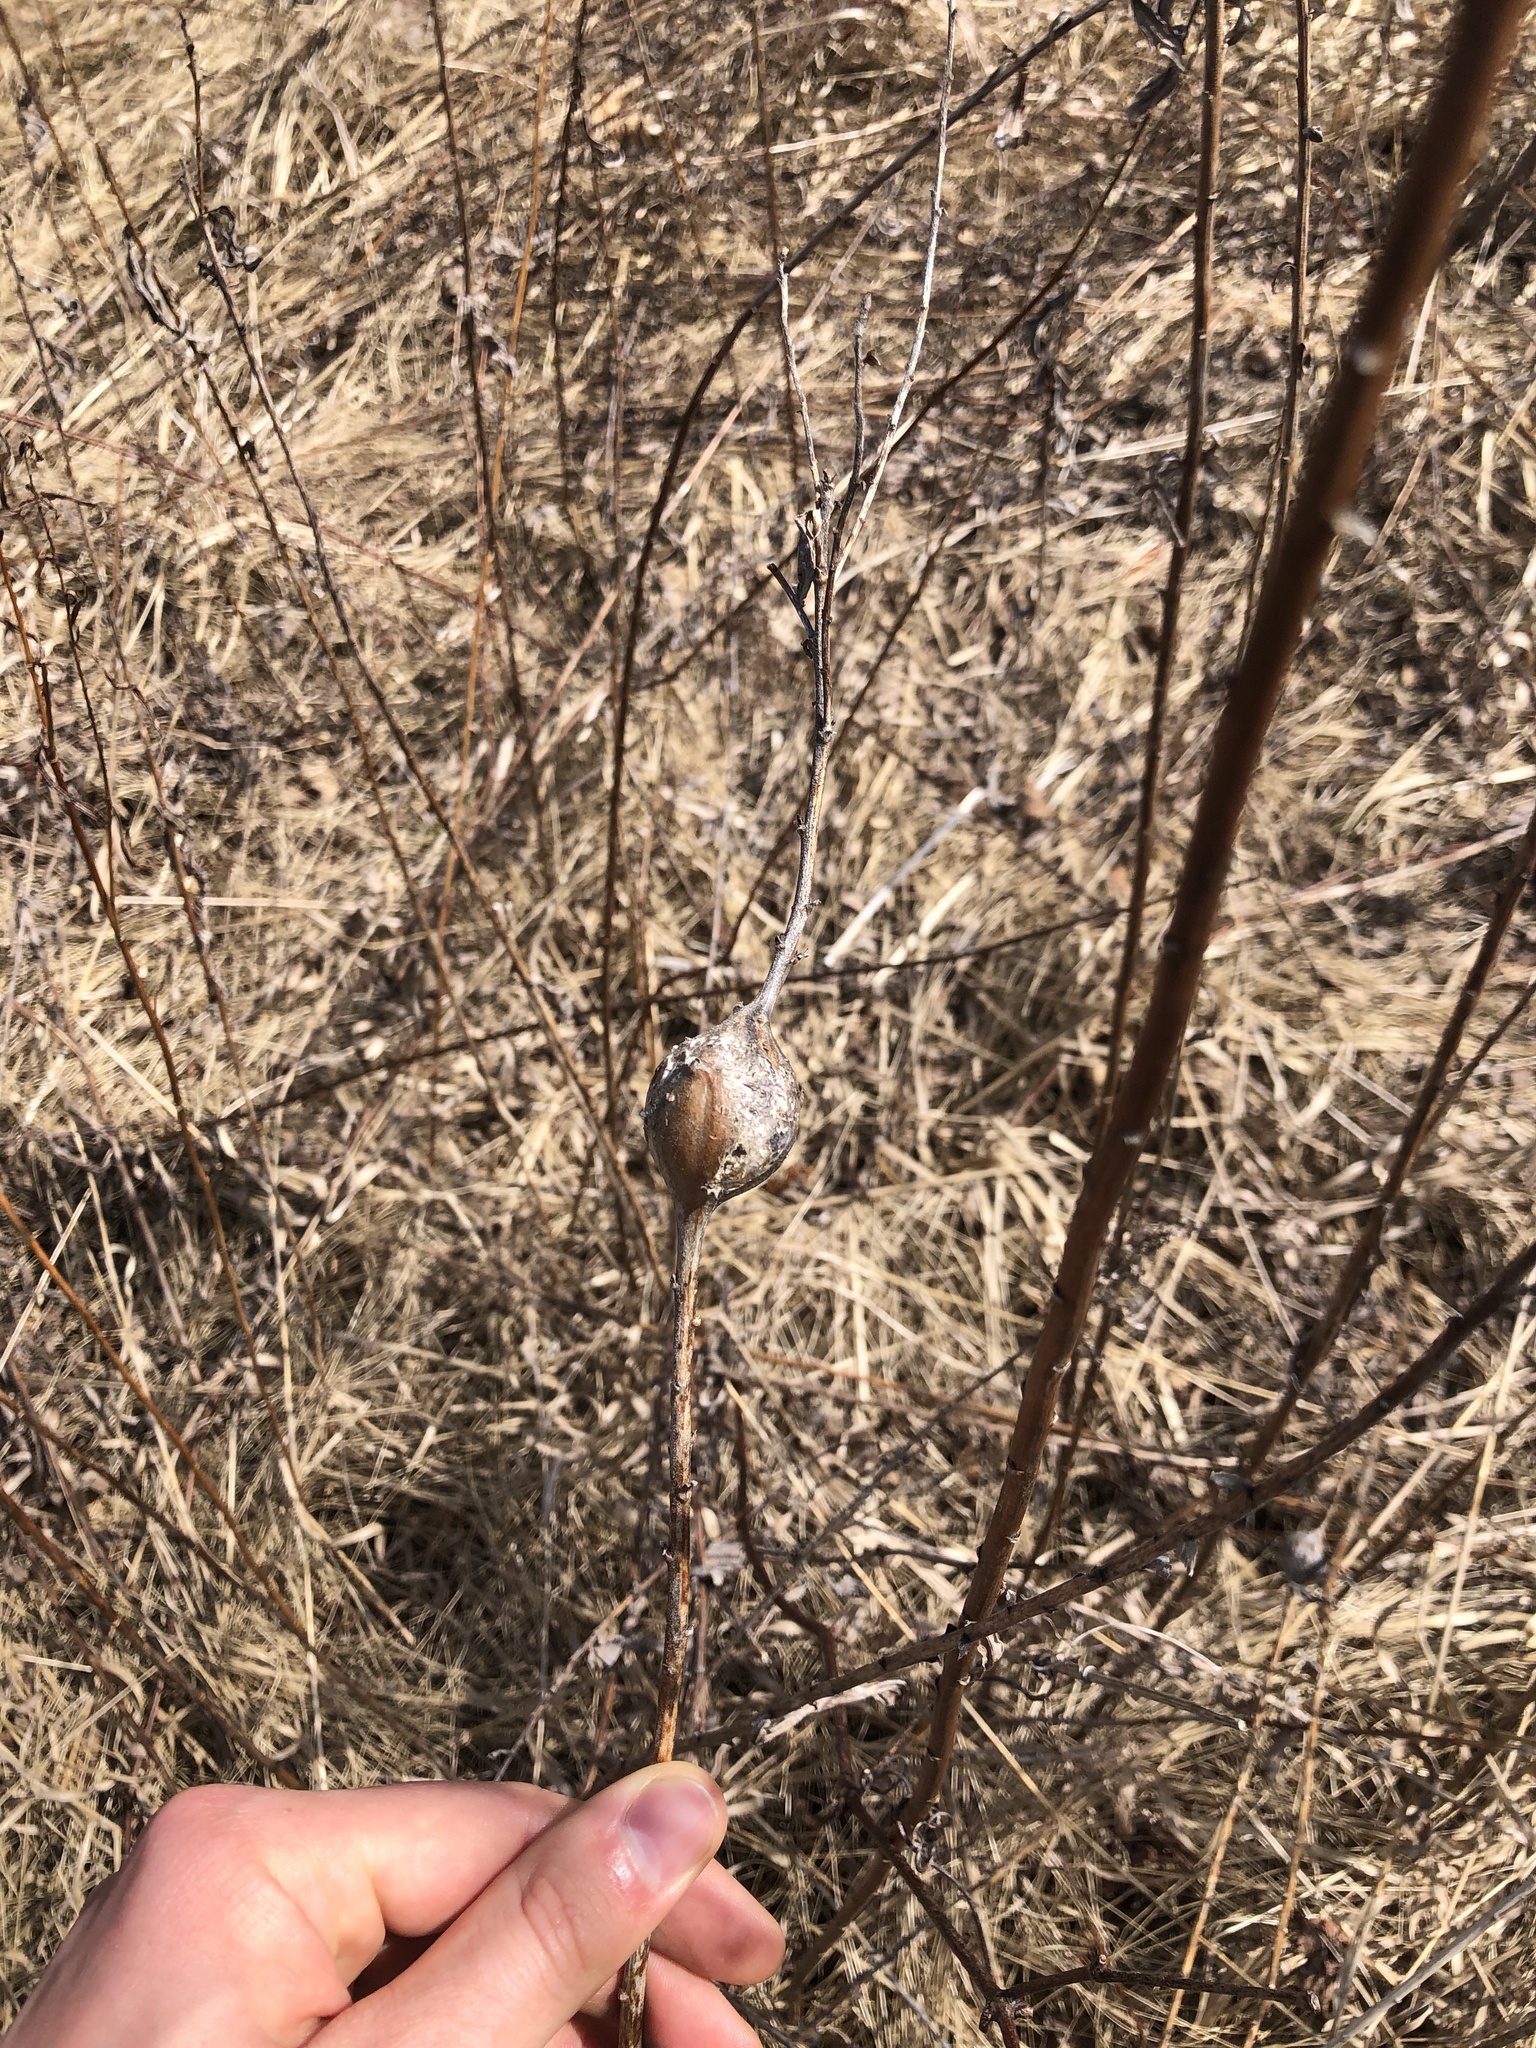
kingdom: Animalia
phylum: Arthropoda
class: Insecta
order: Diptera
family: Tephritidae
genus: Eurosta
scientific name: Eurosta solidaginis
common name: Goldenrod gall fly
